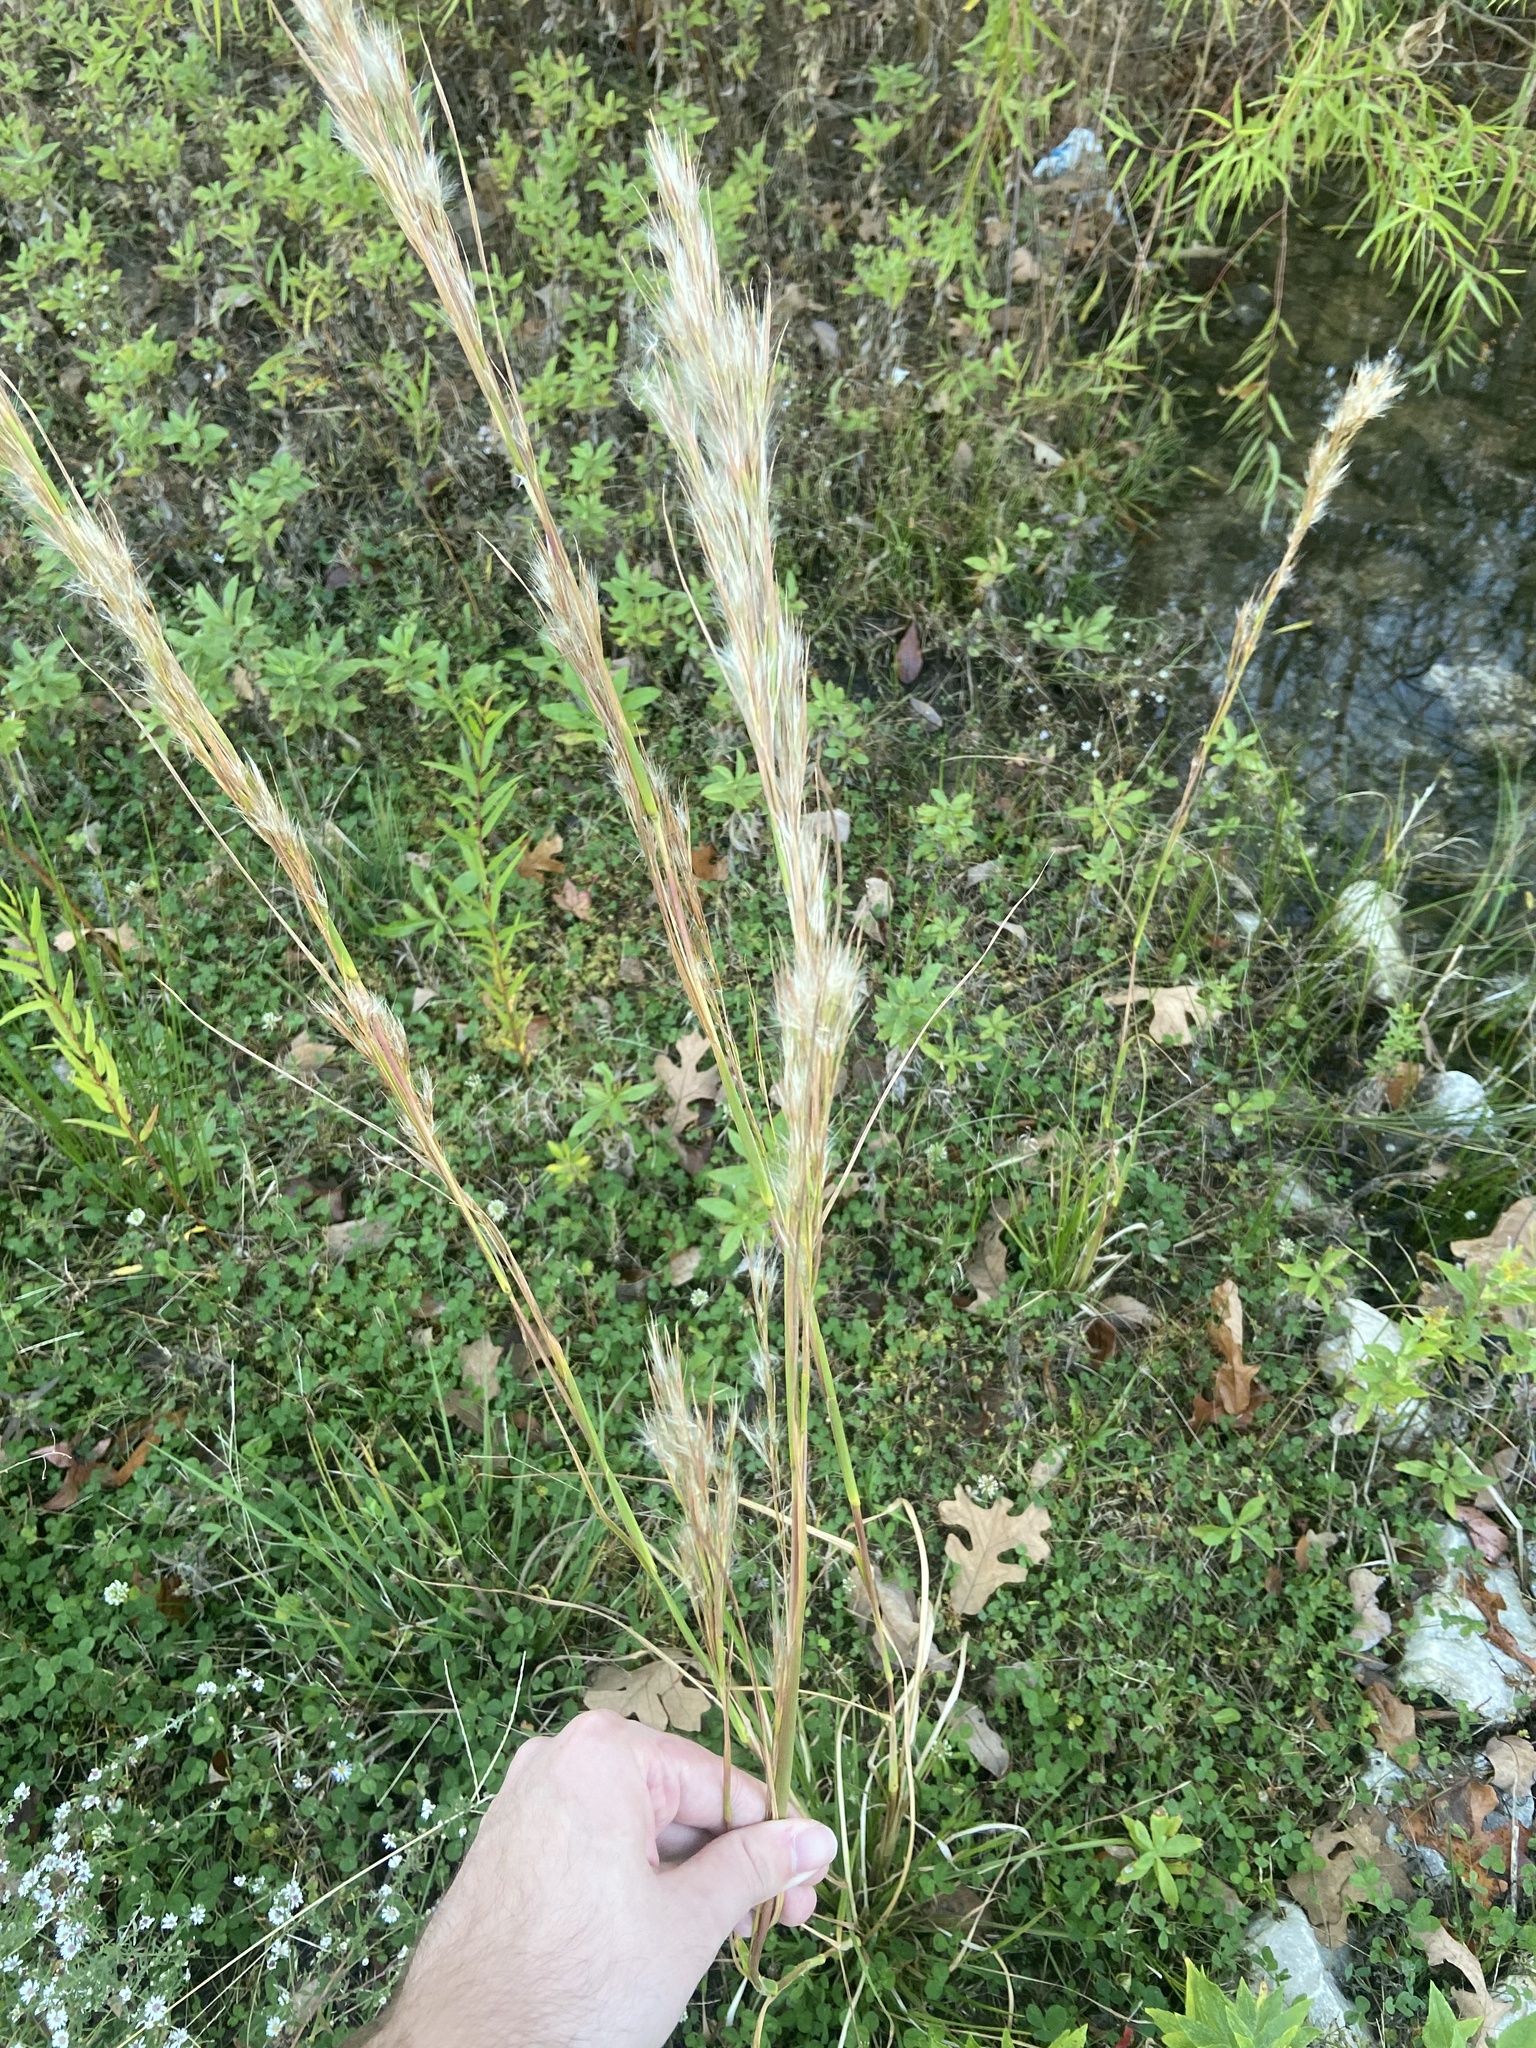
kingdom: Plantae
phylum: Tracheophyta
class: Liliopsida
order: Poales
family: Poaceae
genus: Andropogon
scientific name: Andropogon tenuispatheus
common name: Bushy bluestem
